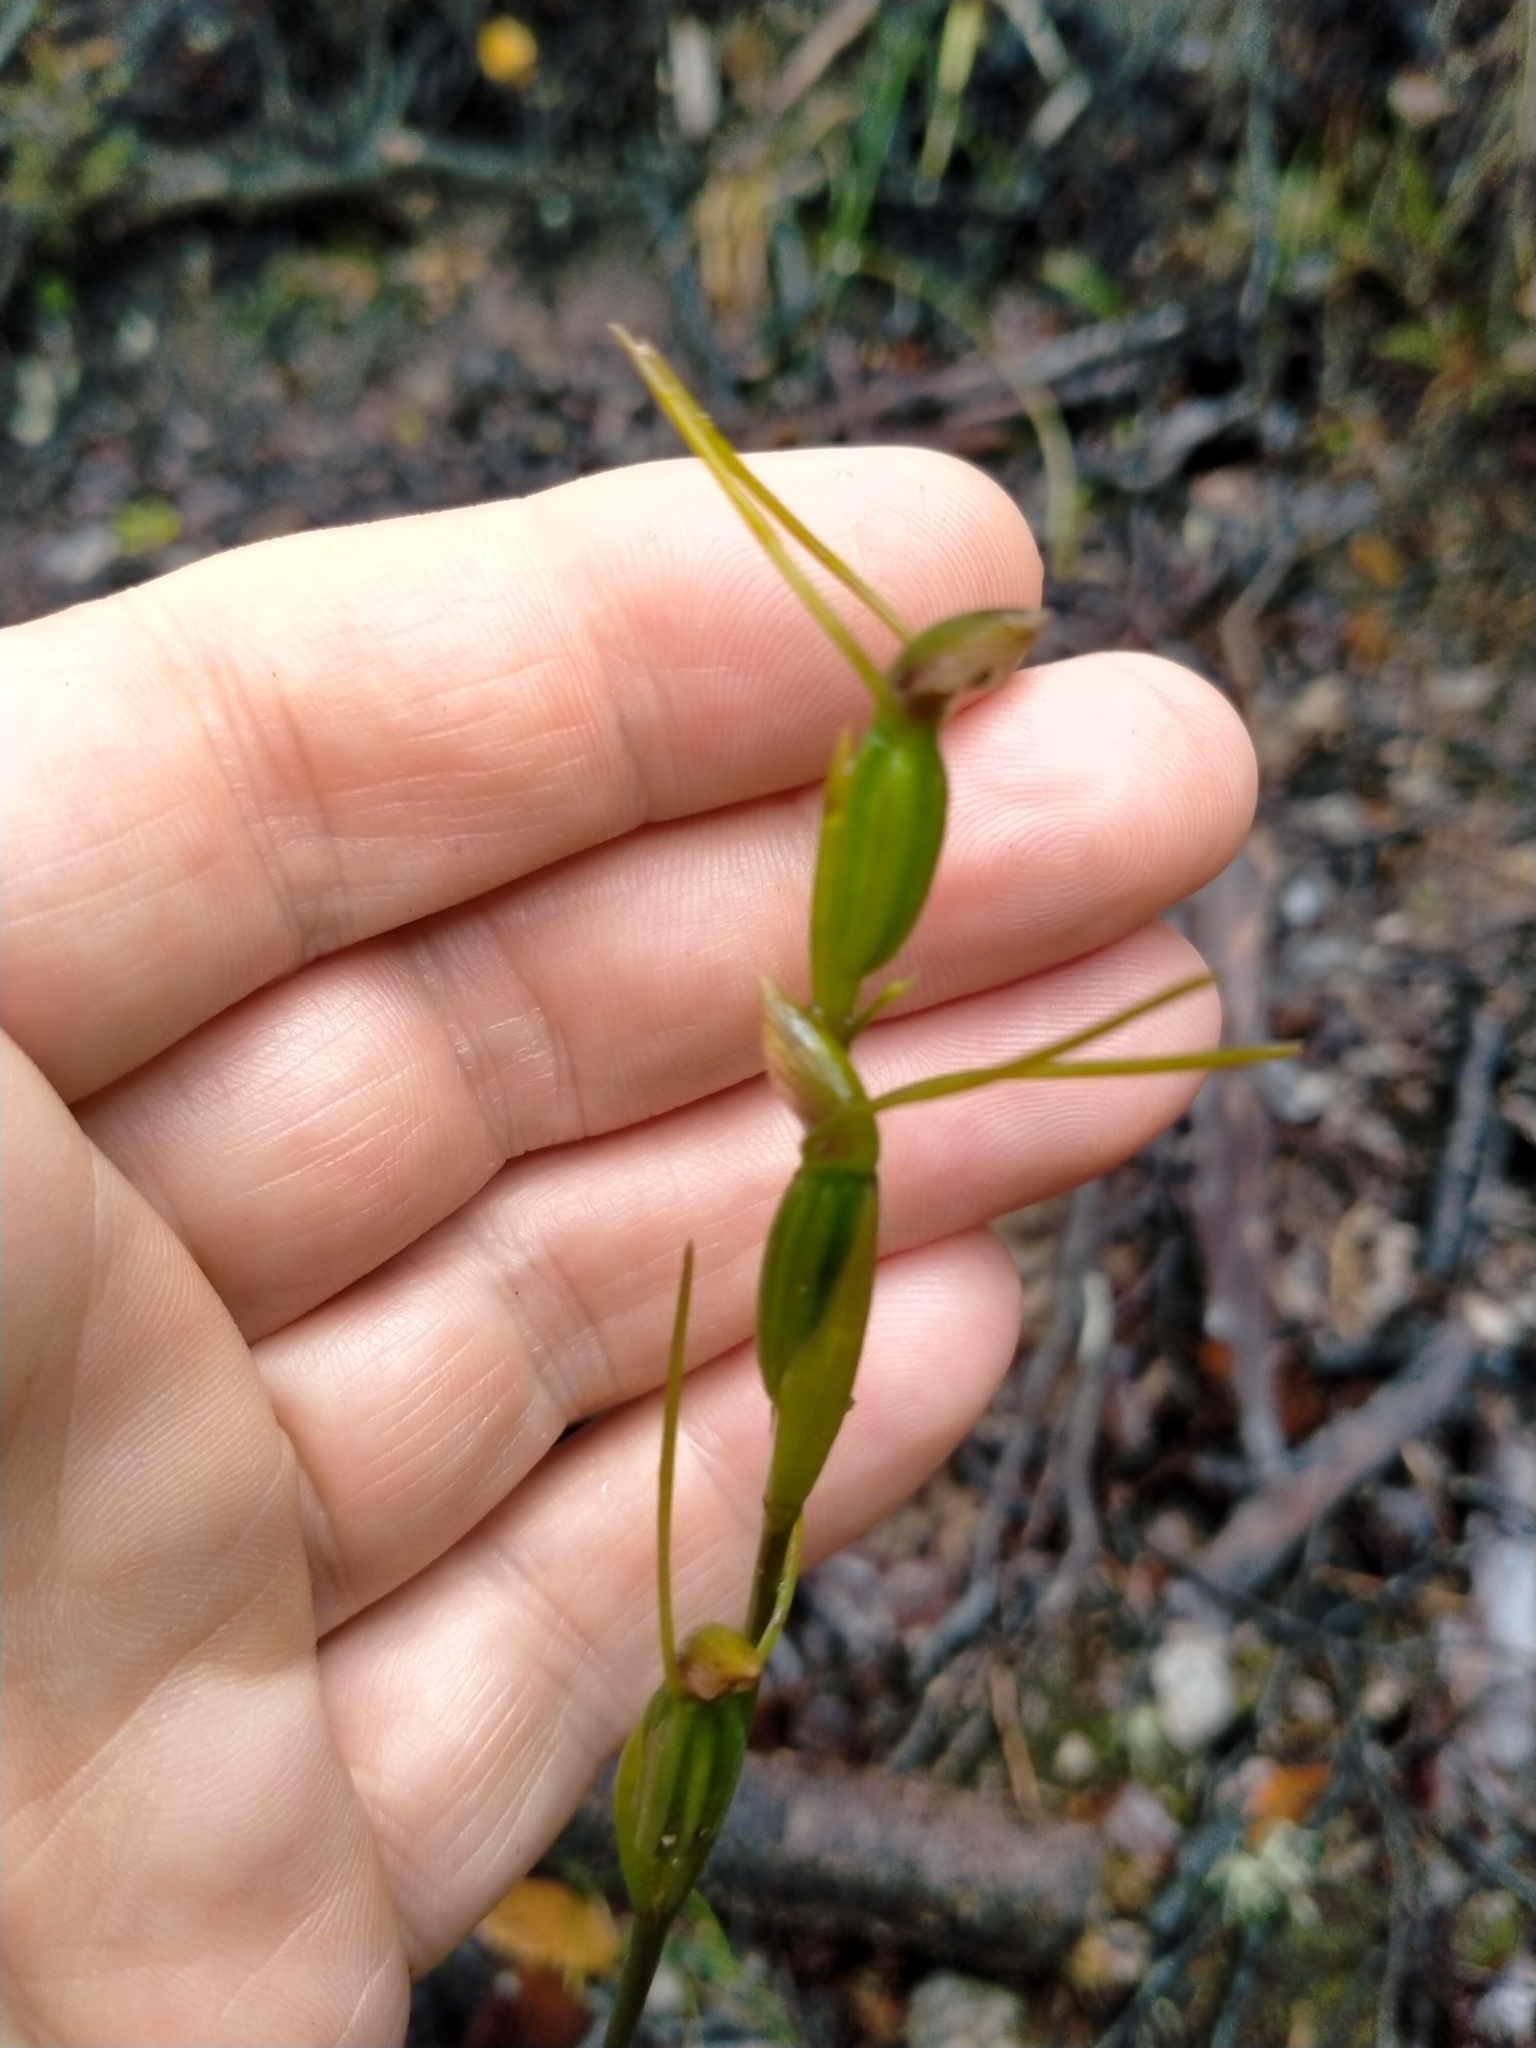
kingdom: Plantae
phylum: Tracheophyta
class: Liliopsida
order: Asparagales
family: Orchidaceae
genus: Orthoceras
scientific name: Orthoceras novae-zeelandiae
